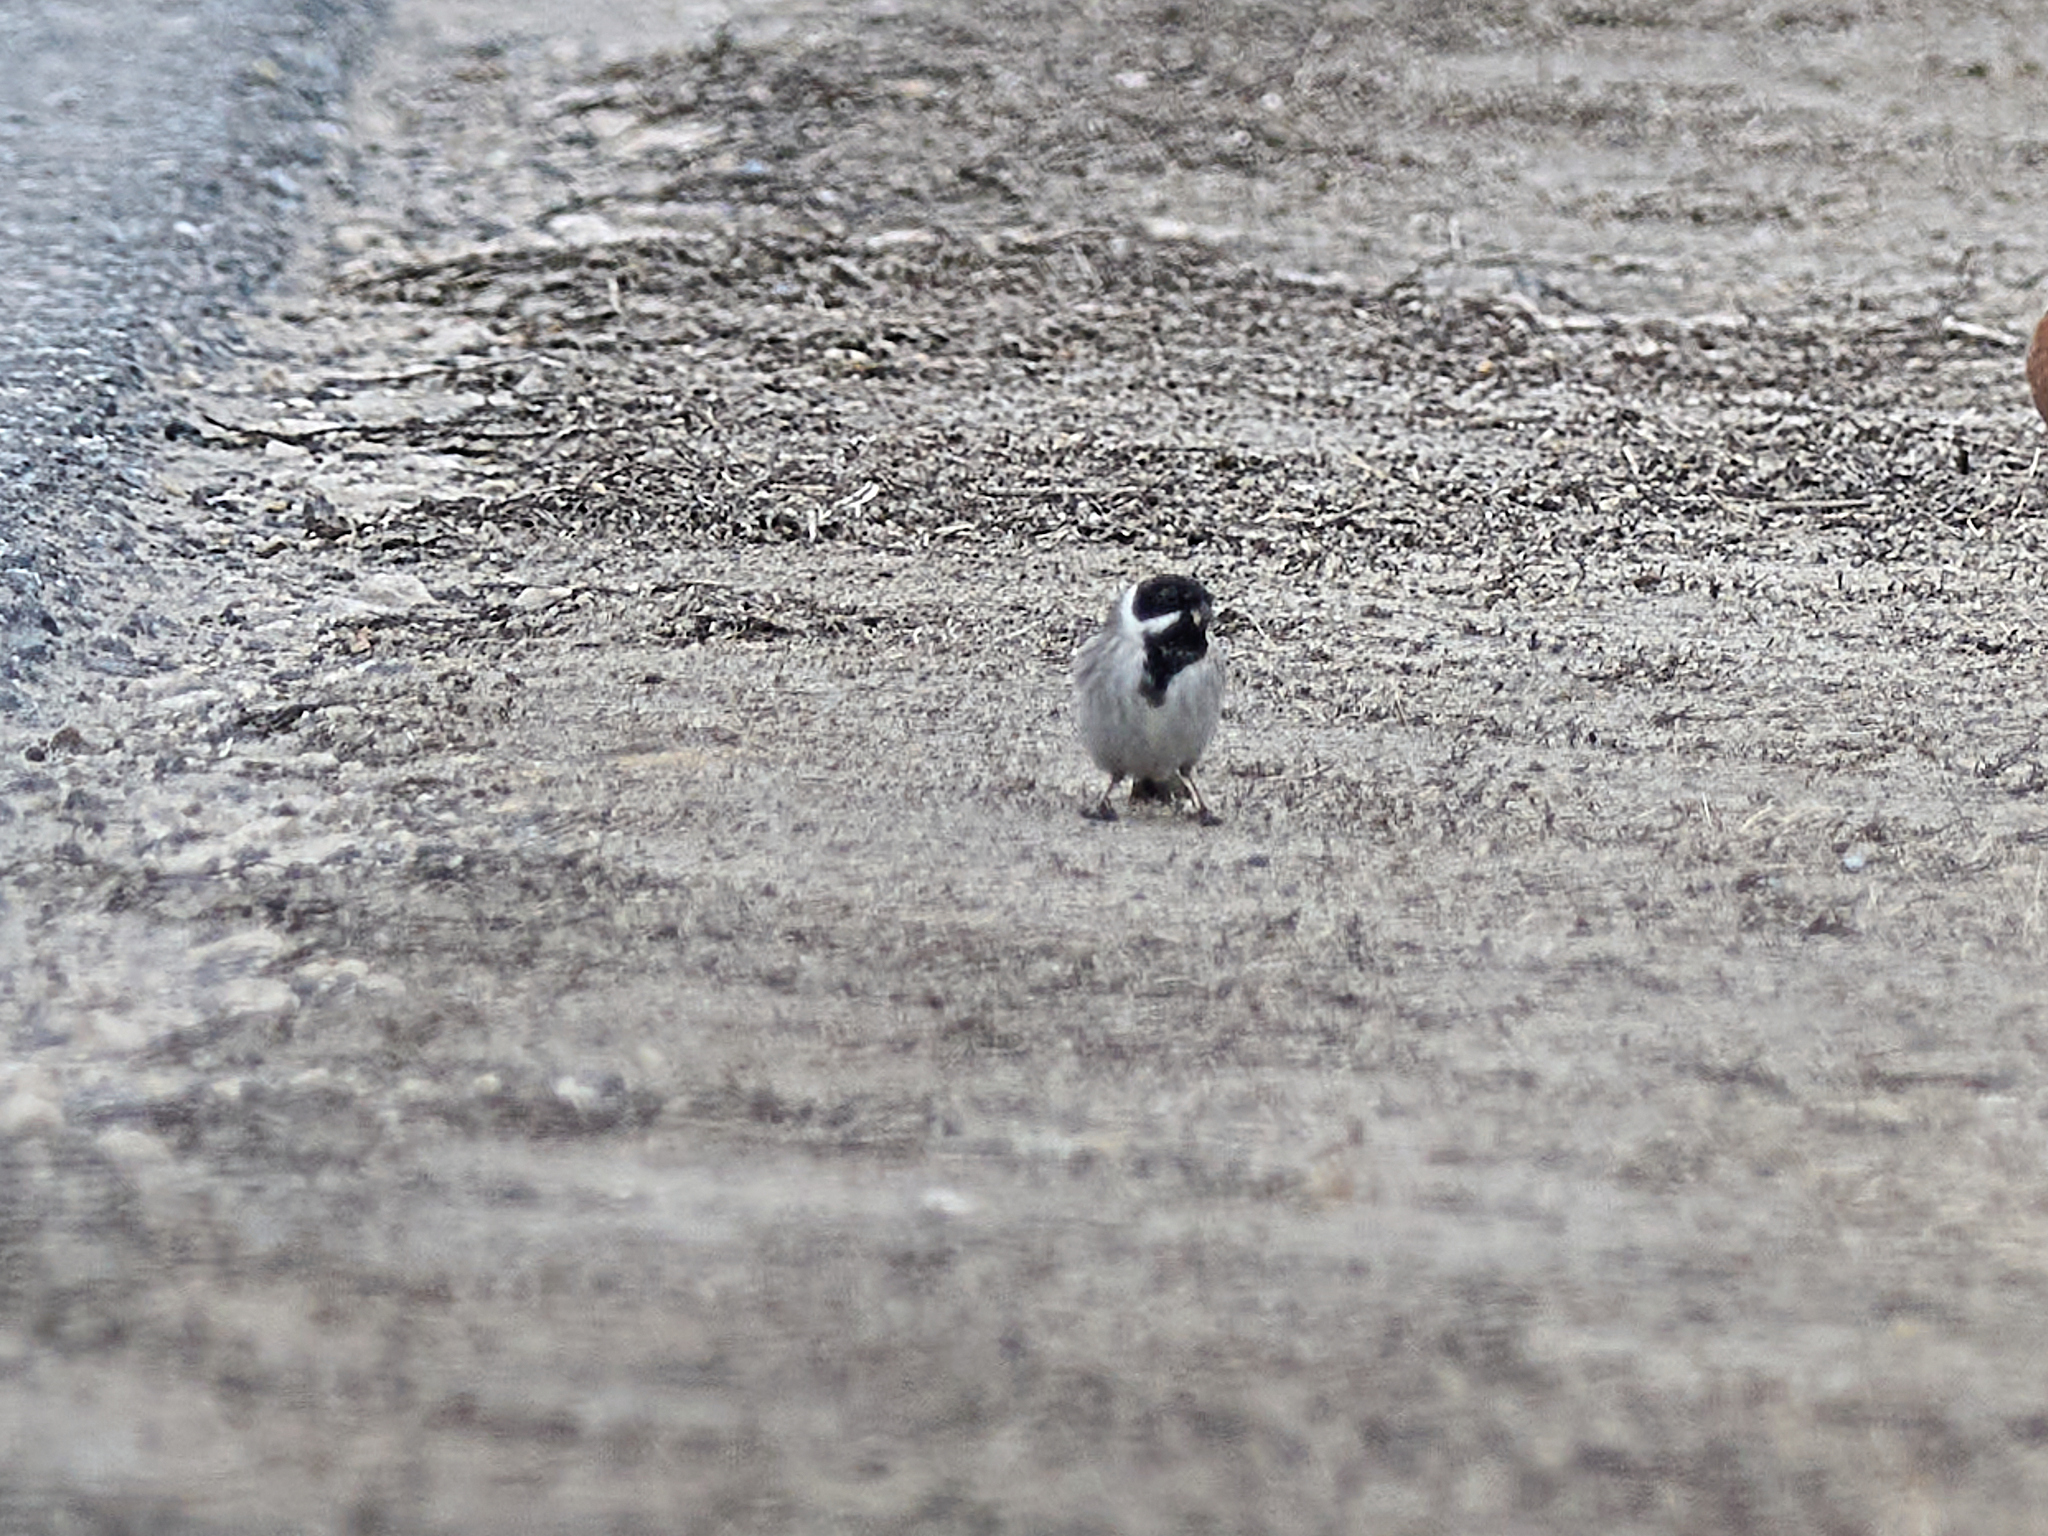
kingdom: Animalia
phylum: Chordata
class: Aves
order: Passeriformes
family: Emberizidae
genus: Emberiza
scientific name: Emberiza schoeniclus
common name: Reed bunting
